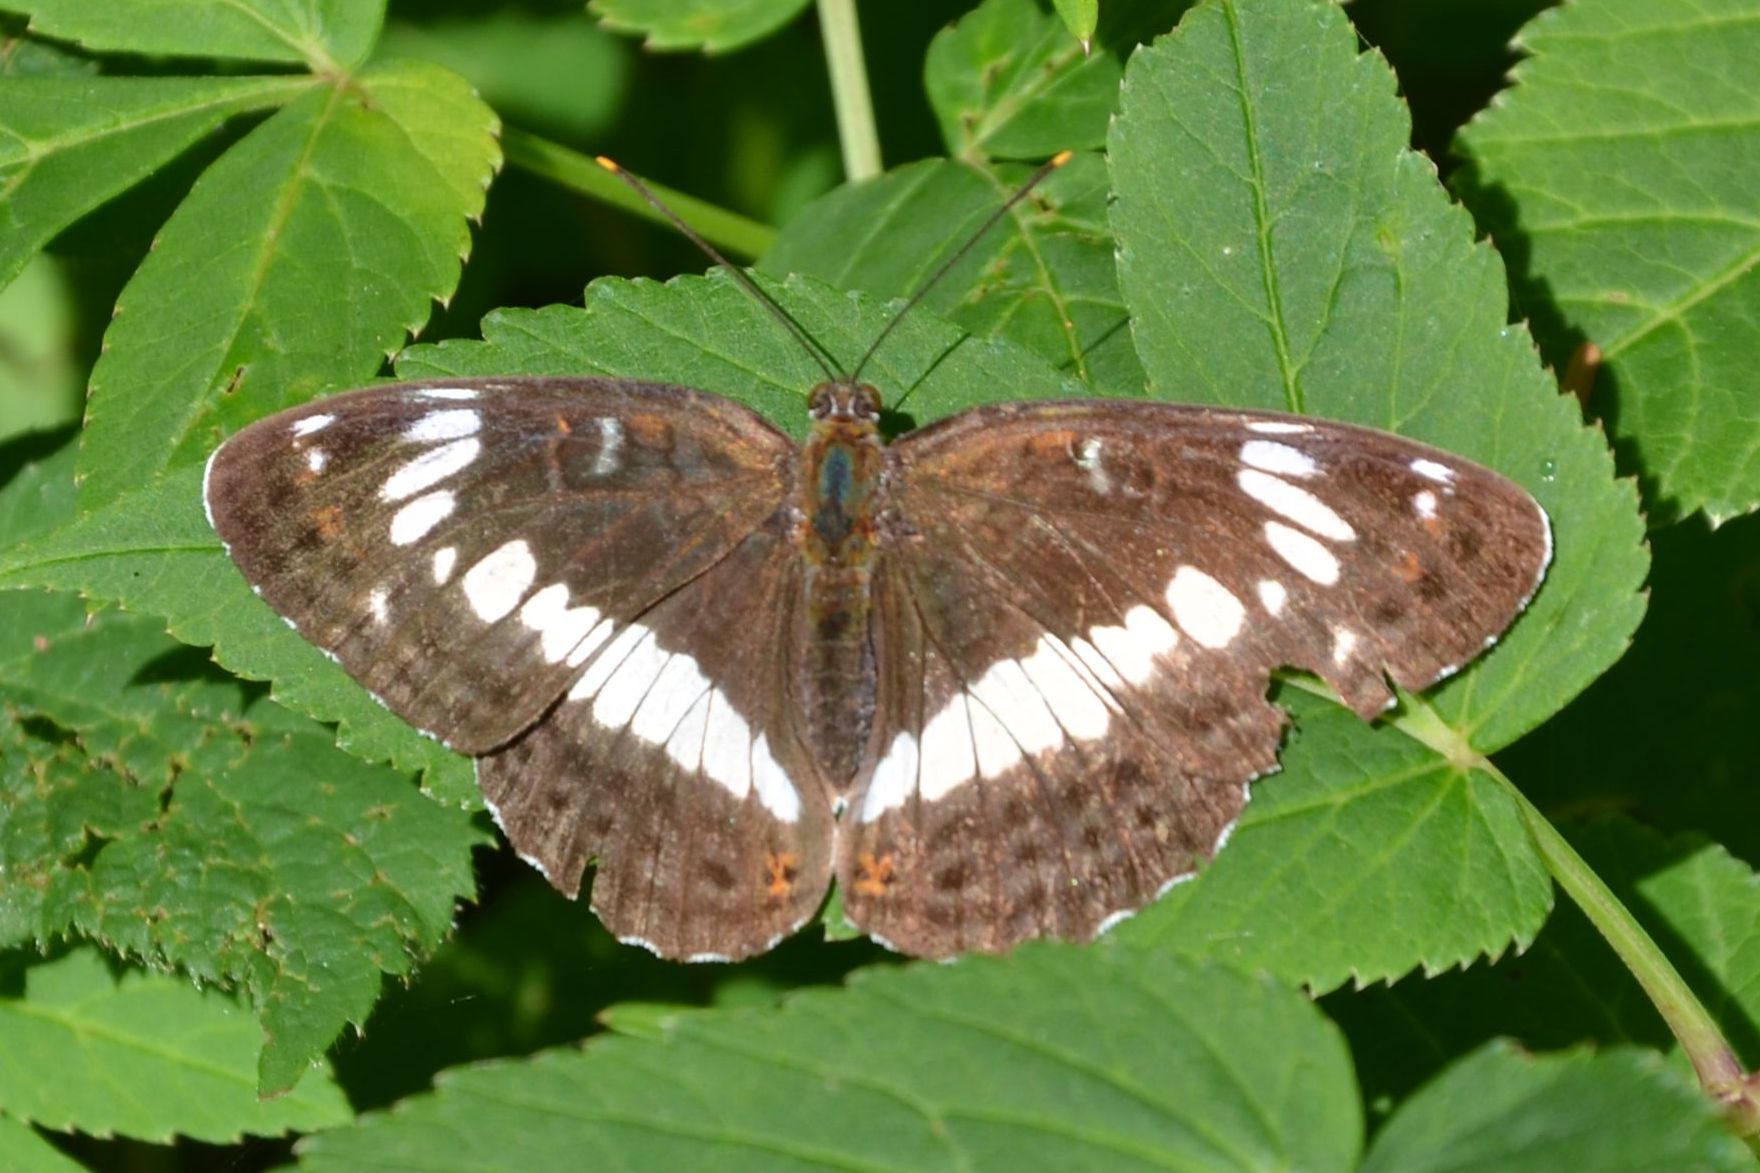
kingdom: Animalia
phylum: Arthropoda
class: Insecta
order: Lepidoptera
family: Nymphalidae
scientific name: Nymphalidae
